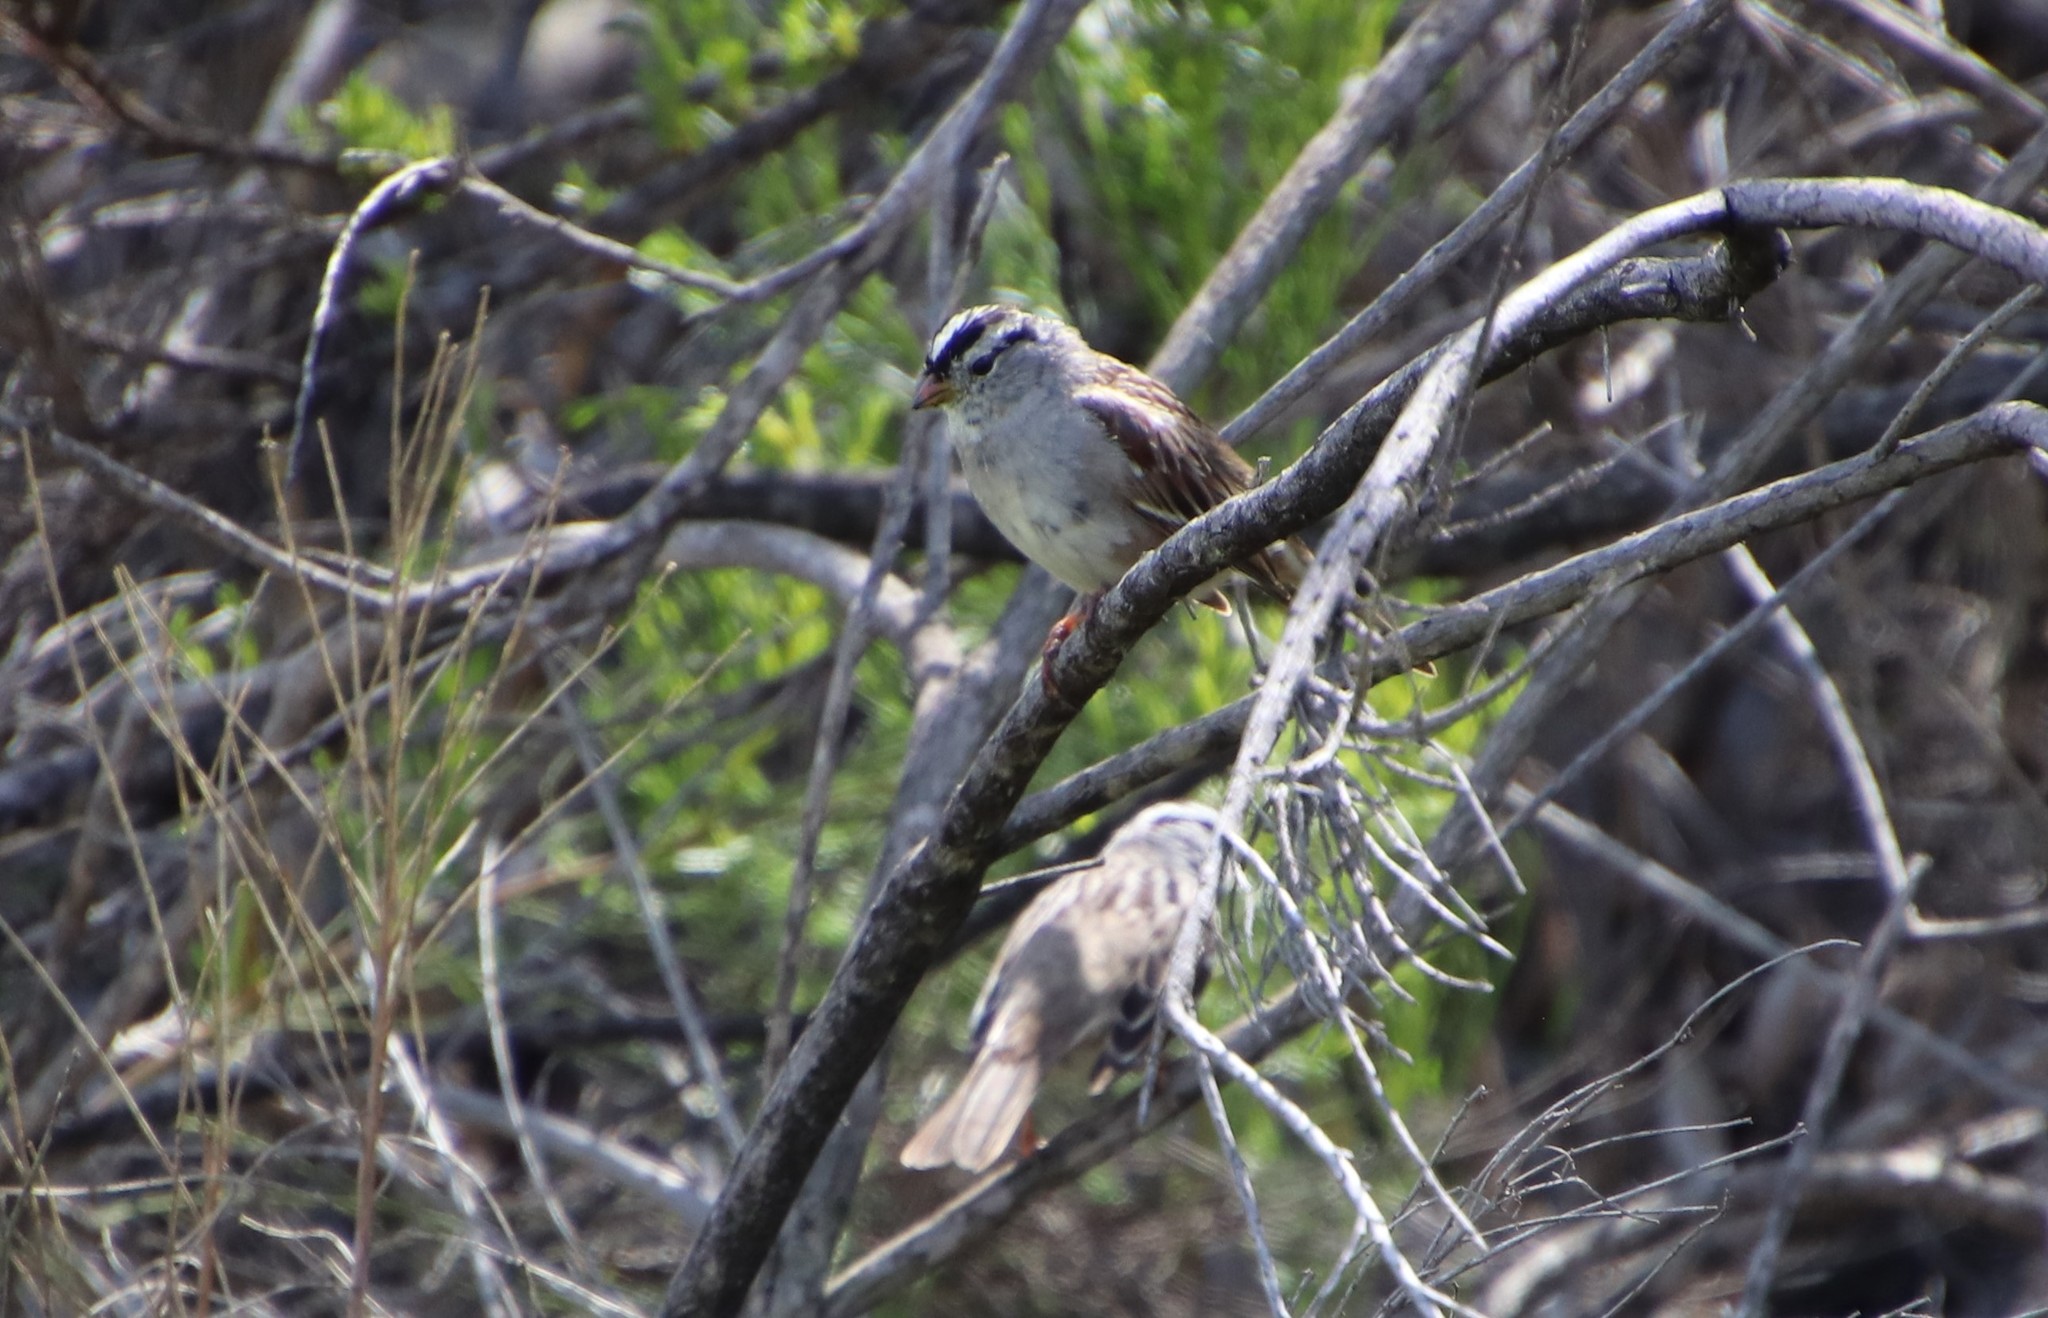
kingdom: Animalia
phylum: Chordata
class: Aves
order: Passeriformes
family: Passerellidae
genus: Zonotrichia
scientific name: Zonotrichia leucophrys
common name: White-crowned sparrow
